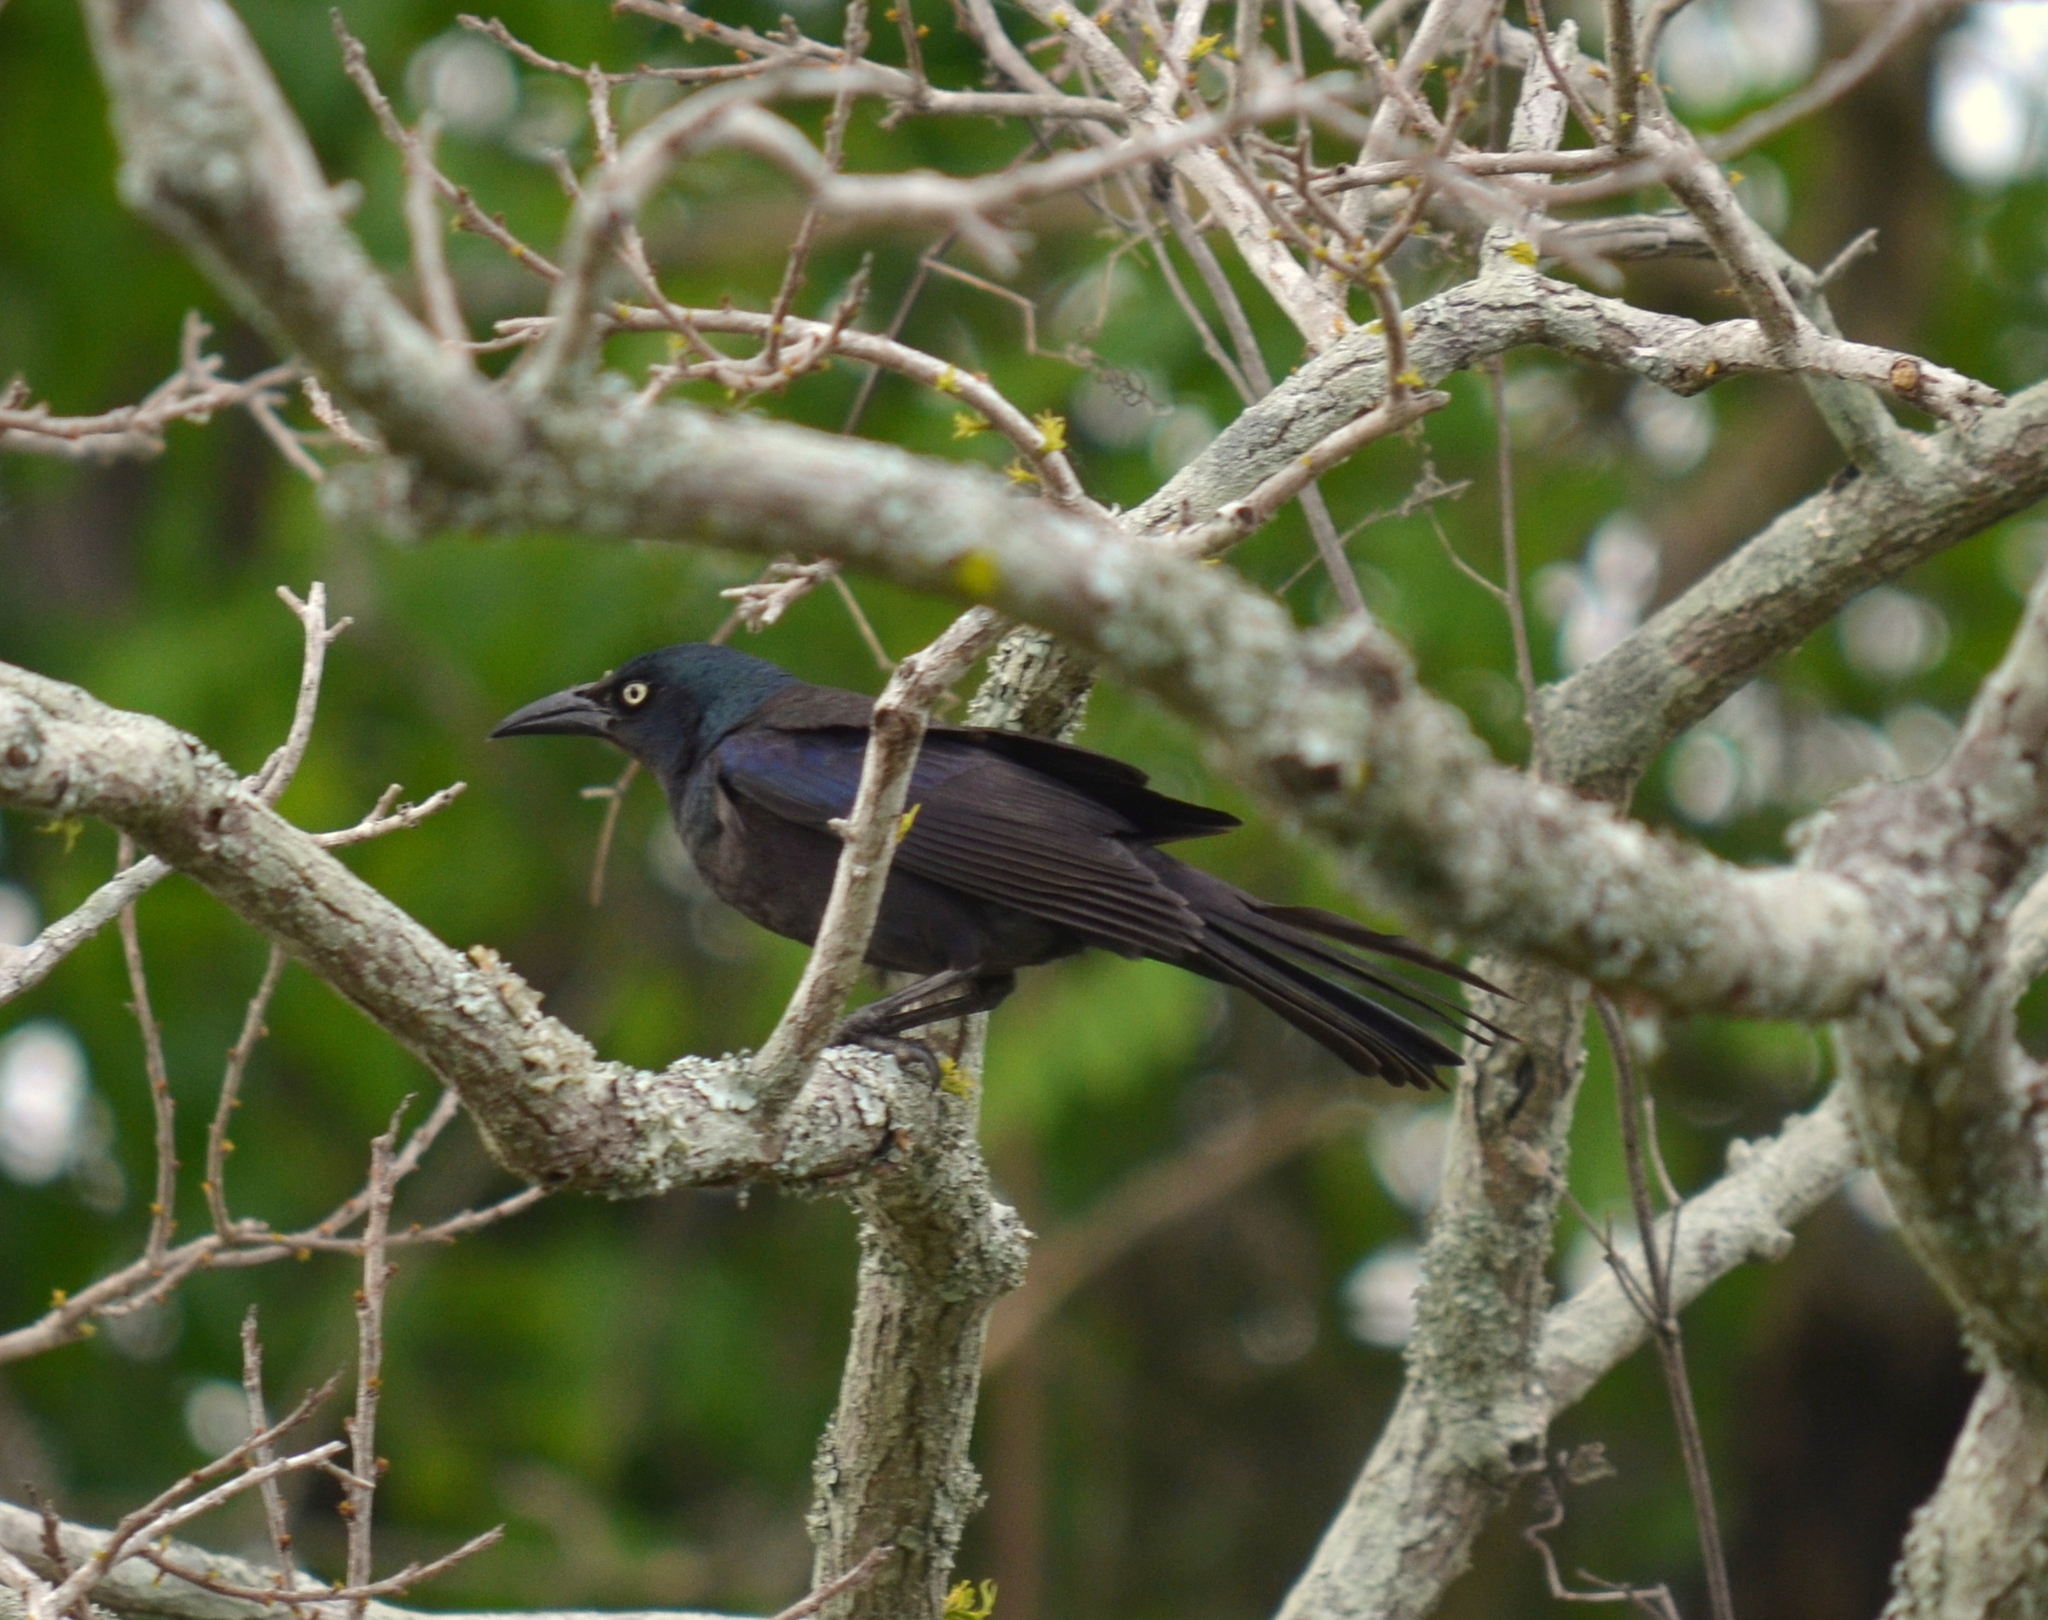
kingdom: Animalia
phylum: Chordata
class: Aves
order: Passeriformes
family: Icteridae
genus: Quiscalus
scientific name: Quiscalus quiscula
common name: Common grackle
